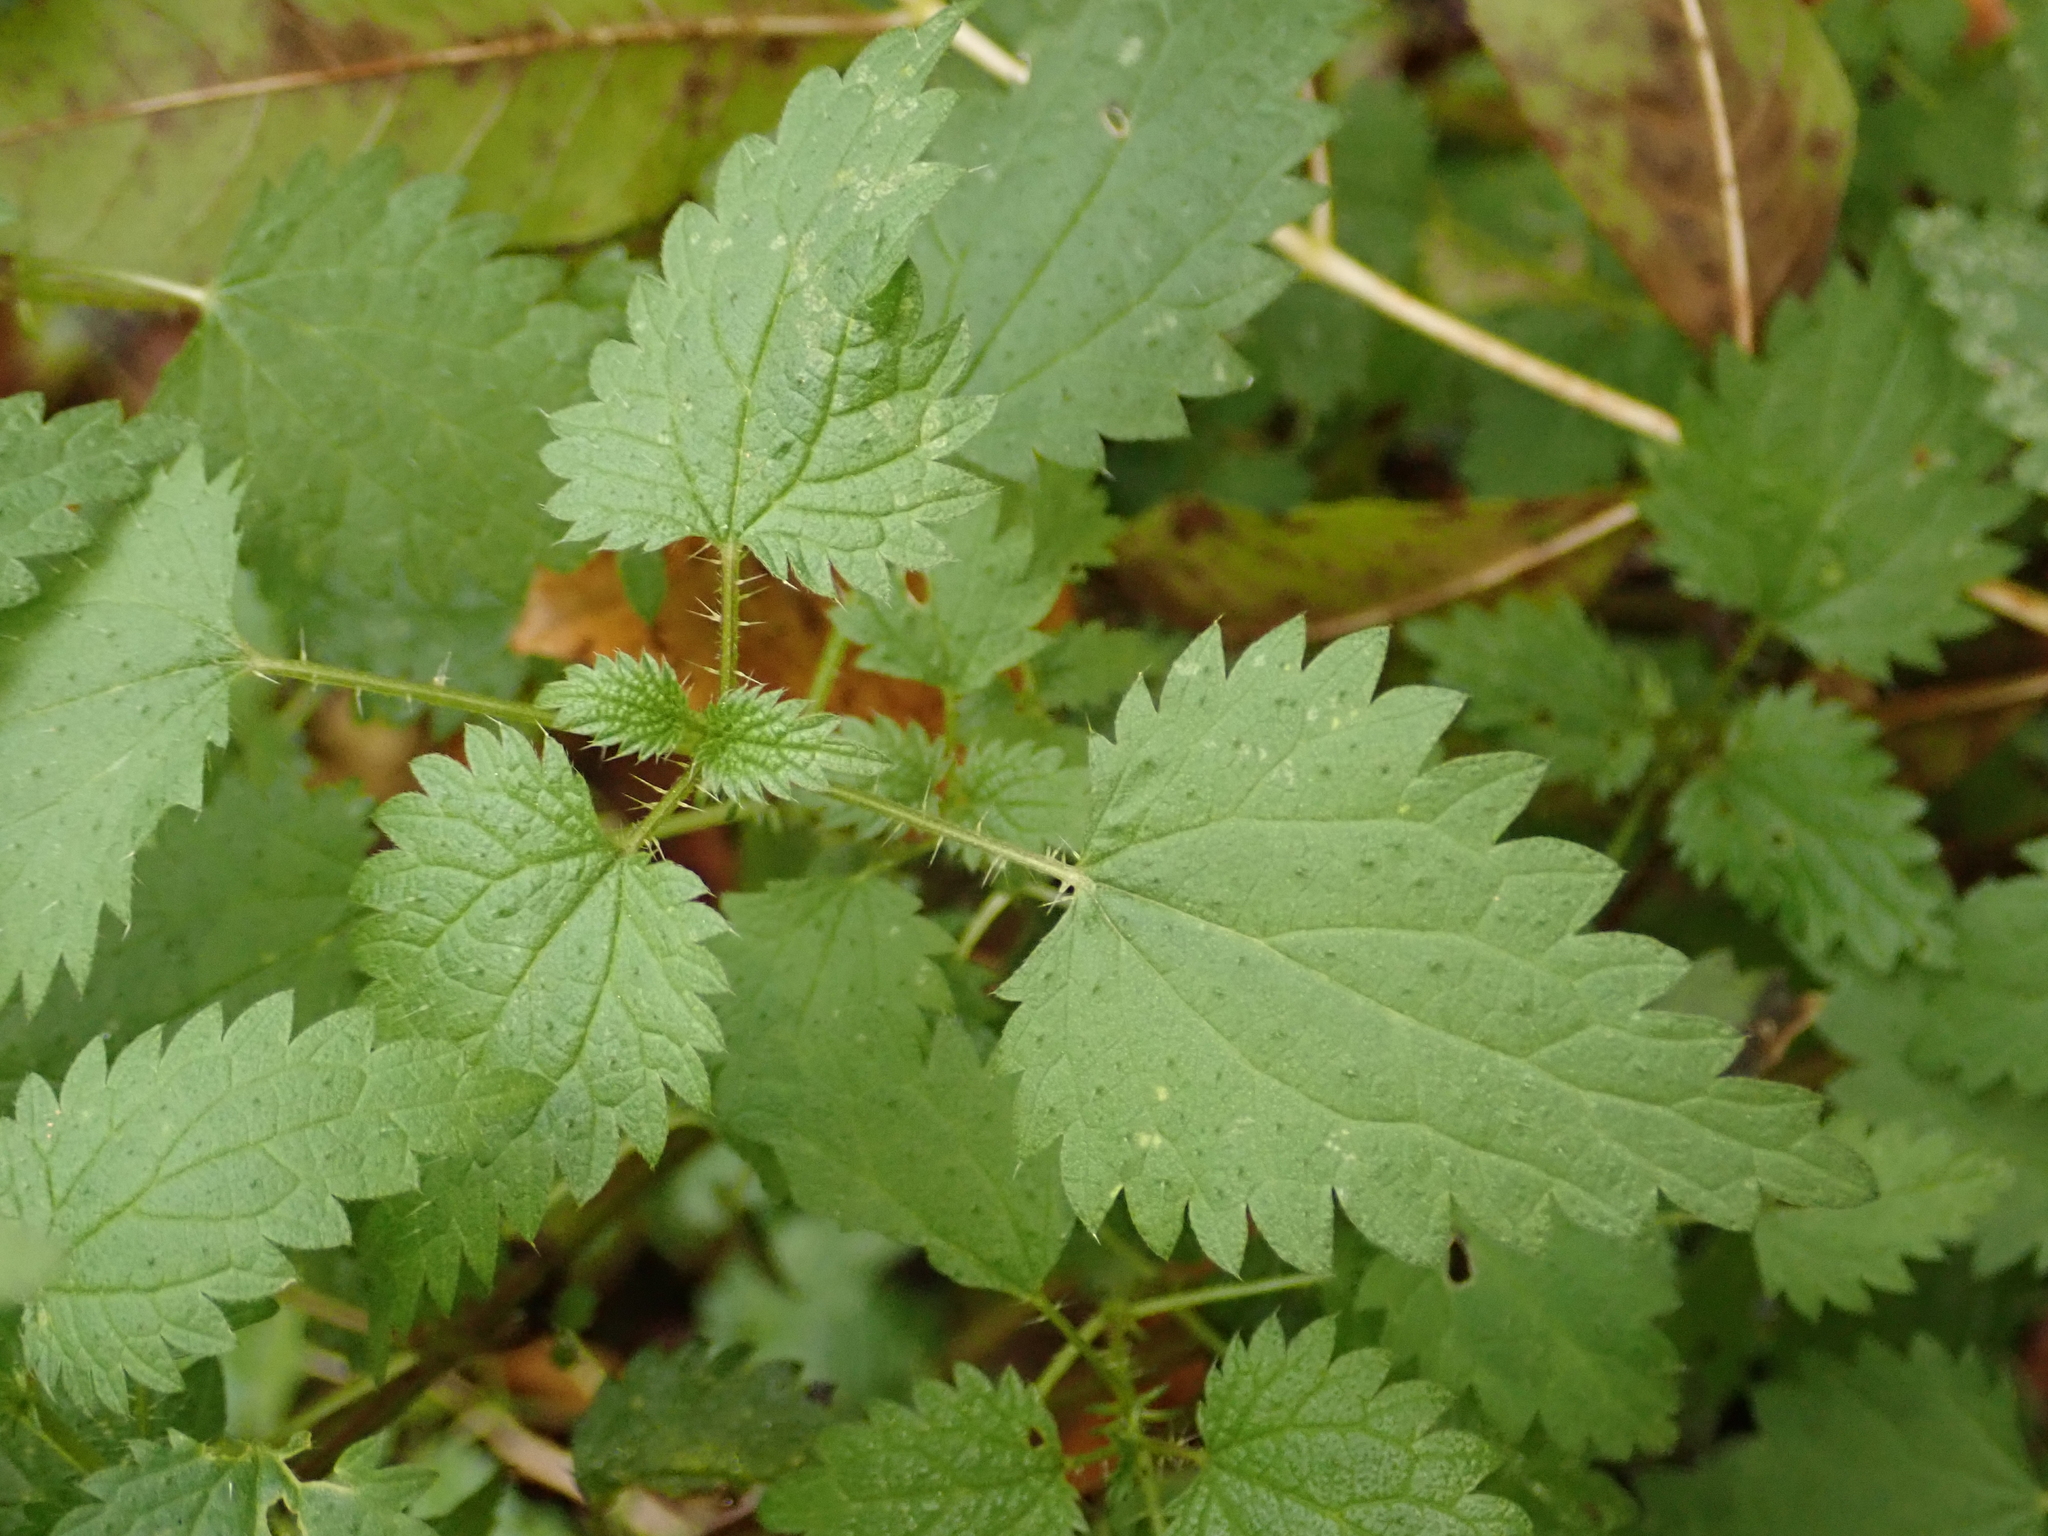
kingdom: Plantae
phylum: Tracheophyta
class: Magnoliopsida
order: Rosales
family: Urticaceae
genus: Urtica
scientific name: Urtica dioica
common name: Common nettle
